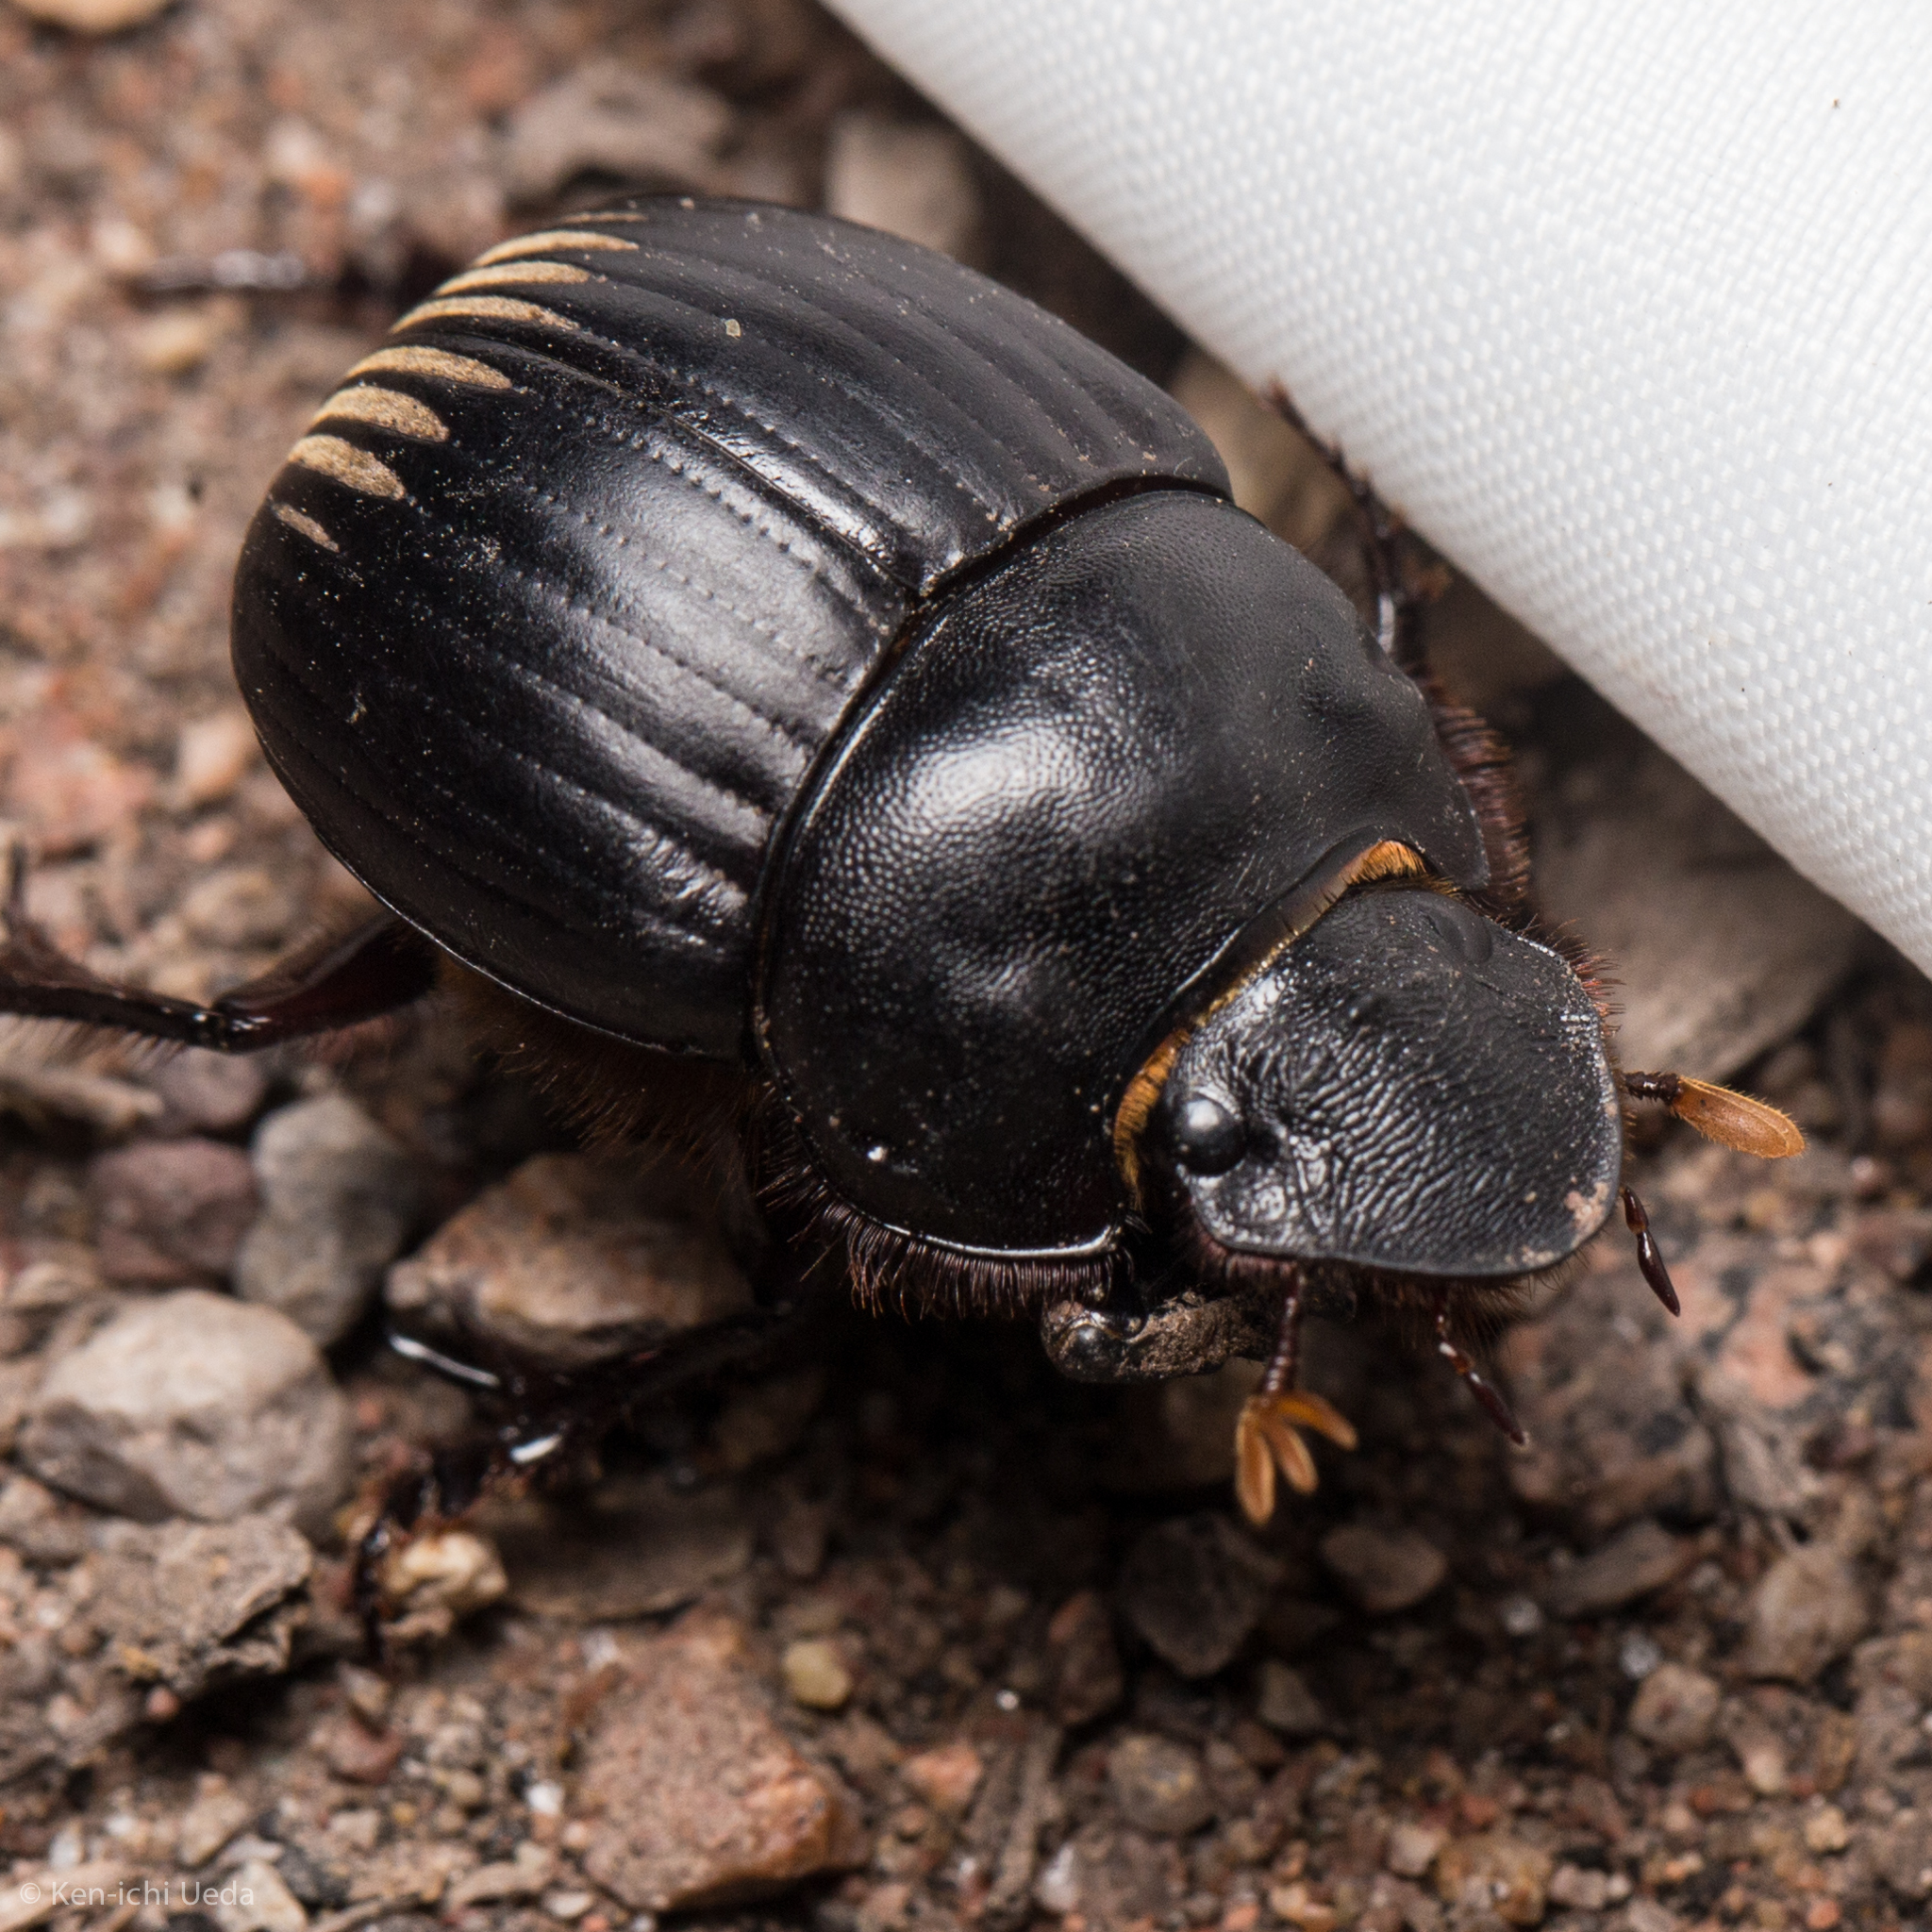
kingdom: Animalia
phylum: Arthropoda
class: Insecta
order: Coleoptera
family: Scarabaeidae
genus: Dichotomius
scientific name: Dichotomius colonicus
